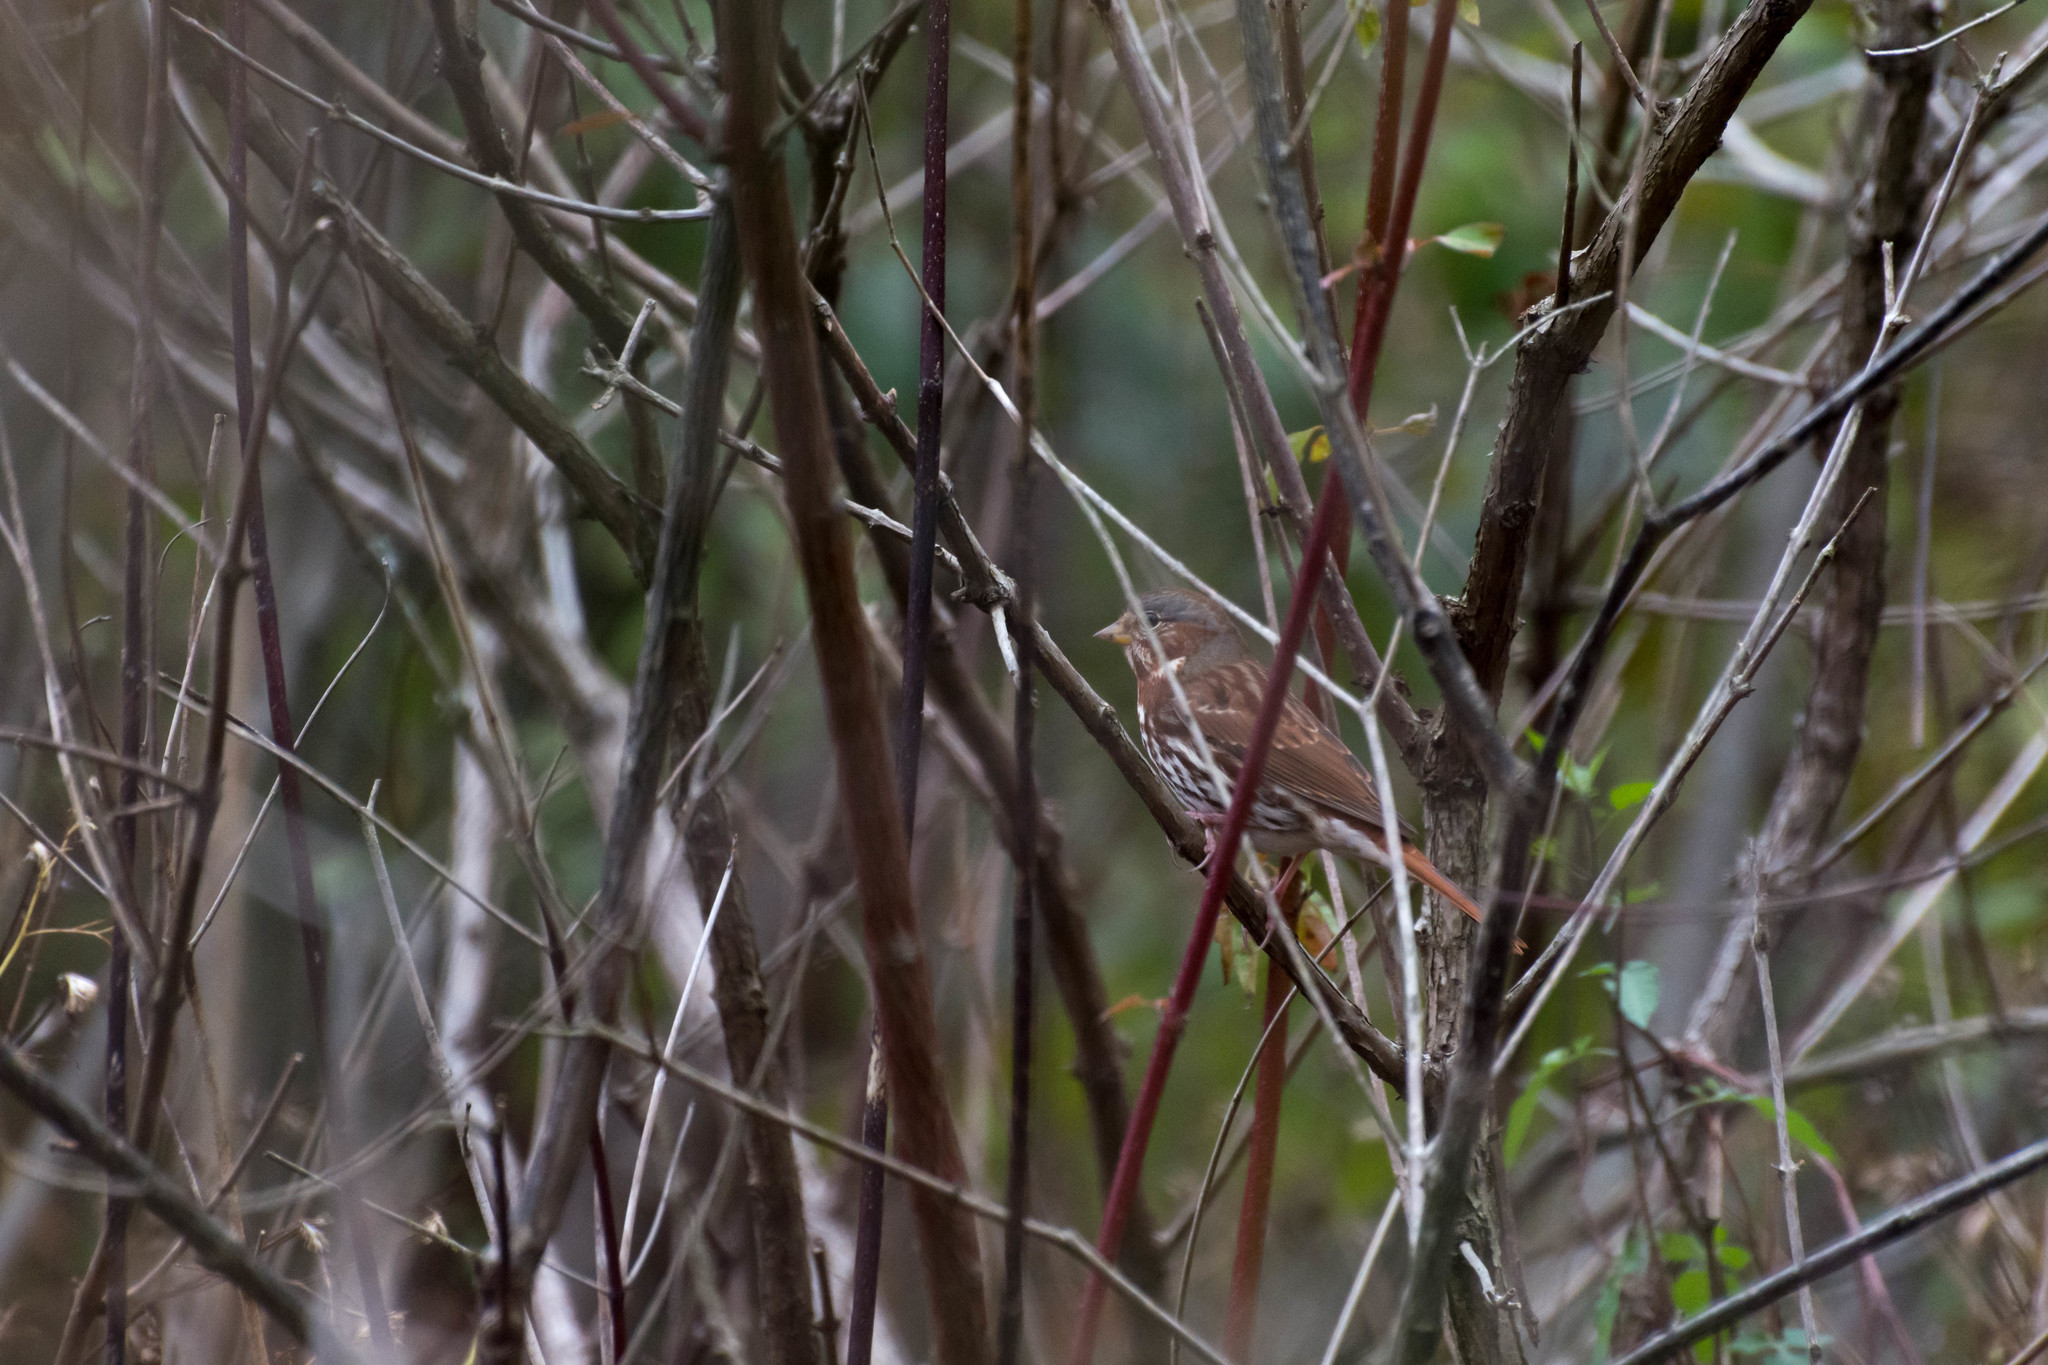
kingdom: Animalia
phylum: Chordata
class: Aves
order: Passeriformes
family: Passerellidae
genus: Passerella
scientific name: Passerella iliaca
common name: Fox sparrow
